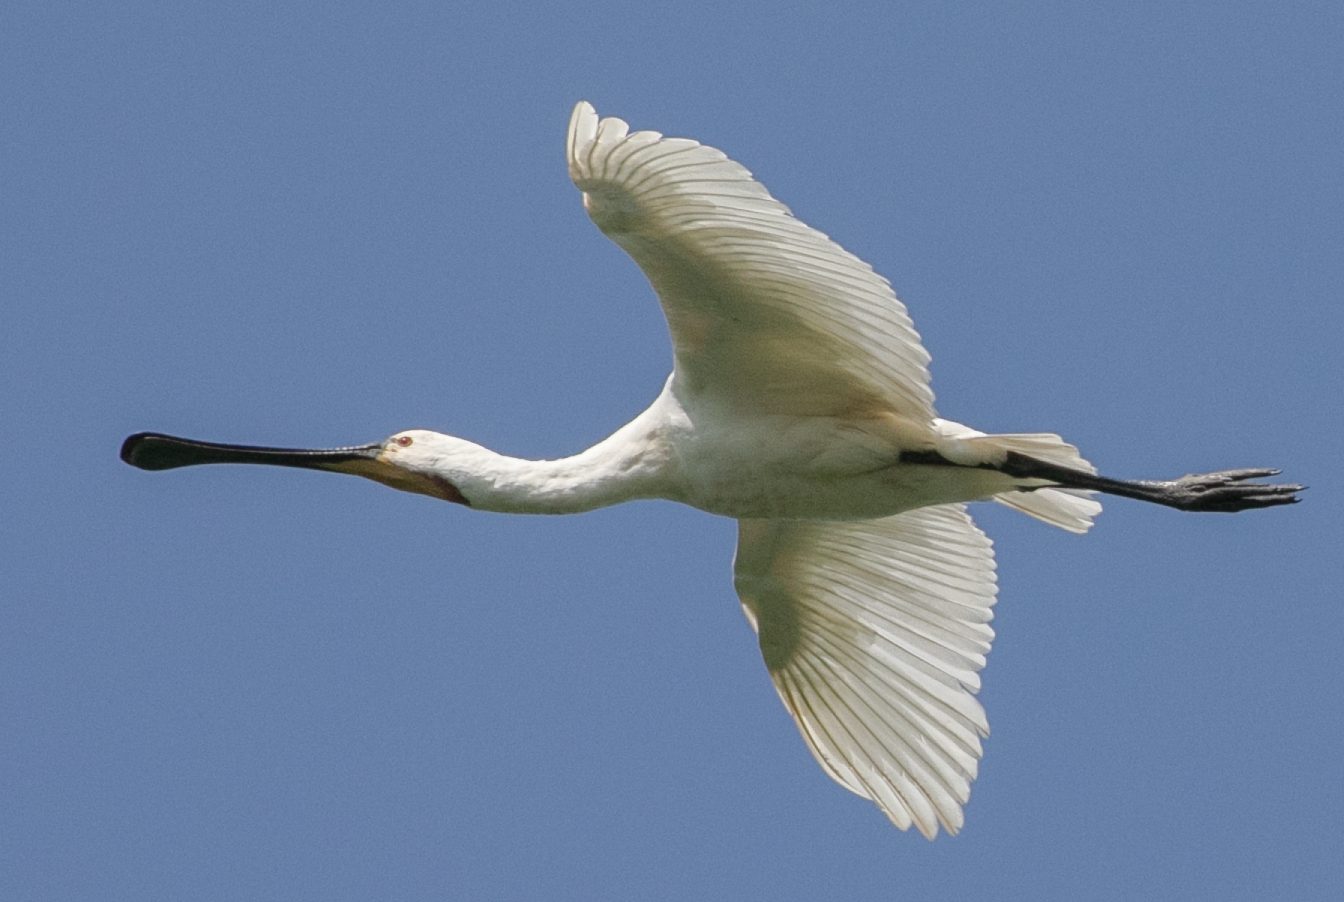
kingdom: Animalia
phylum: Chordata
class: Aves
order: Pelecaniformes
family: Threskiornithidae
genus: Platalea
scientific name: Platalea leucorodia
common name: Eurasian spoonbill
